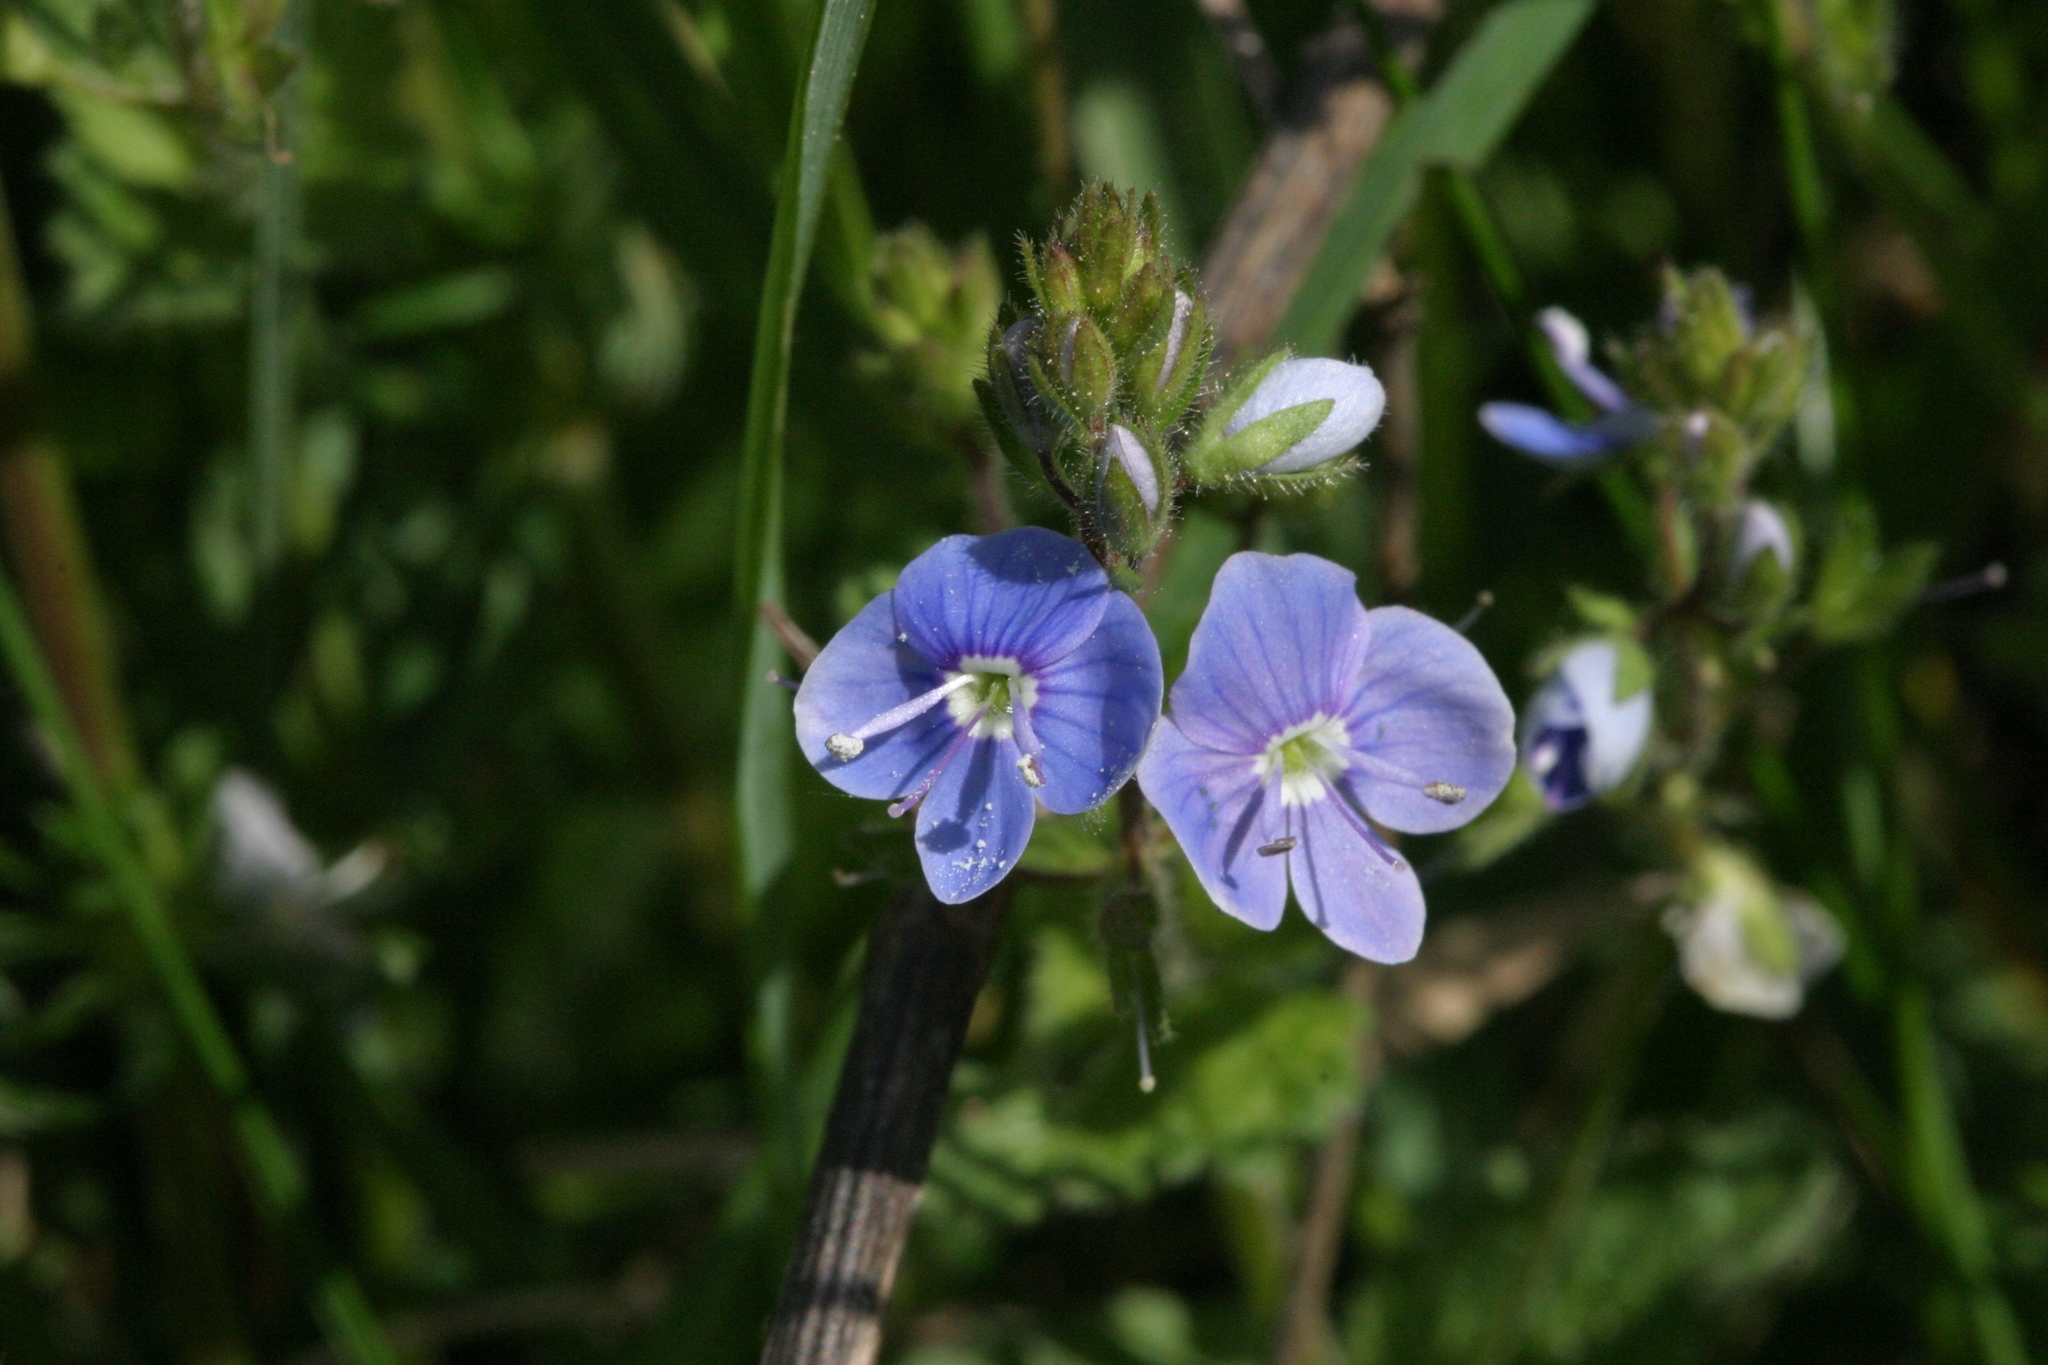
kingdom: Plantae
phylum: Tracheophyta
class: Magnoliopsida
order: Lamiales
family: Plantaginaceae
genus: Veronica
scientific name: Veronica chamaedrys
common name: Germander speedwell
